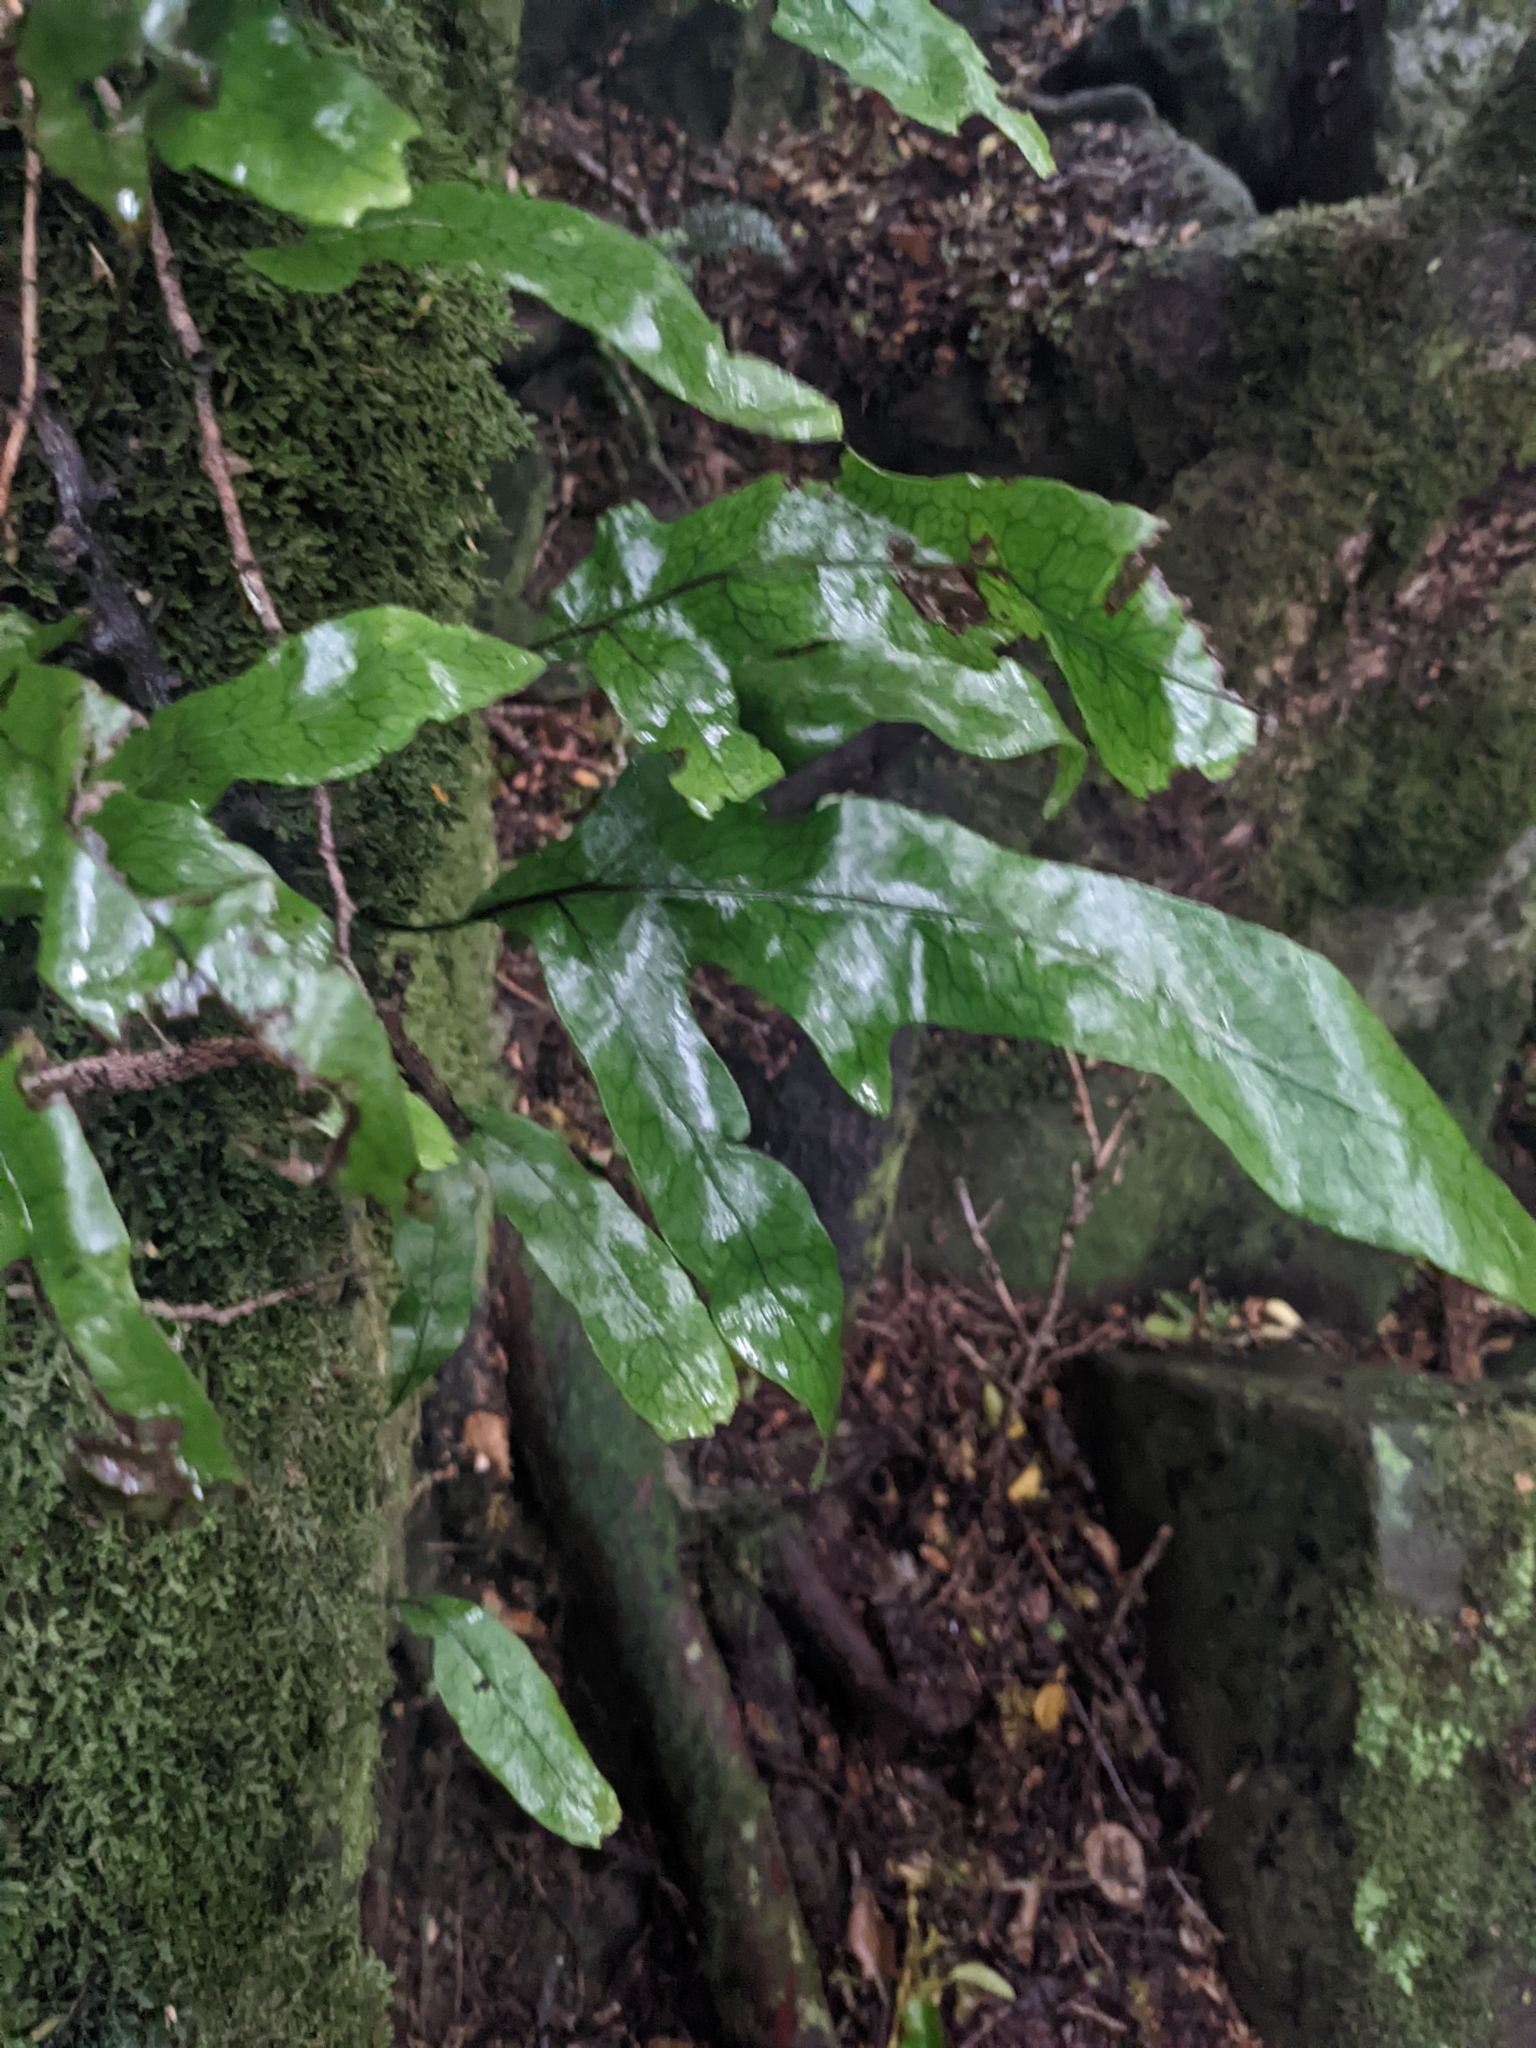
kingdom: Plantae
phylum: Tracheophyta
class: Polypodiopsida
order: Polypodiales
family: Polypodiaceae
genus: Lecanopteris
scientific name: Lecanopteris pustulata
